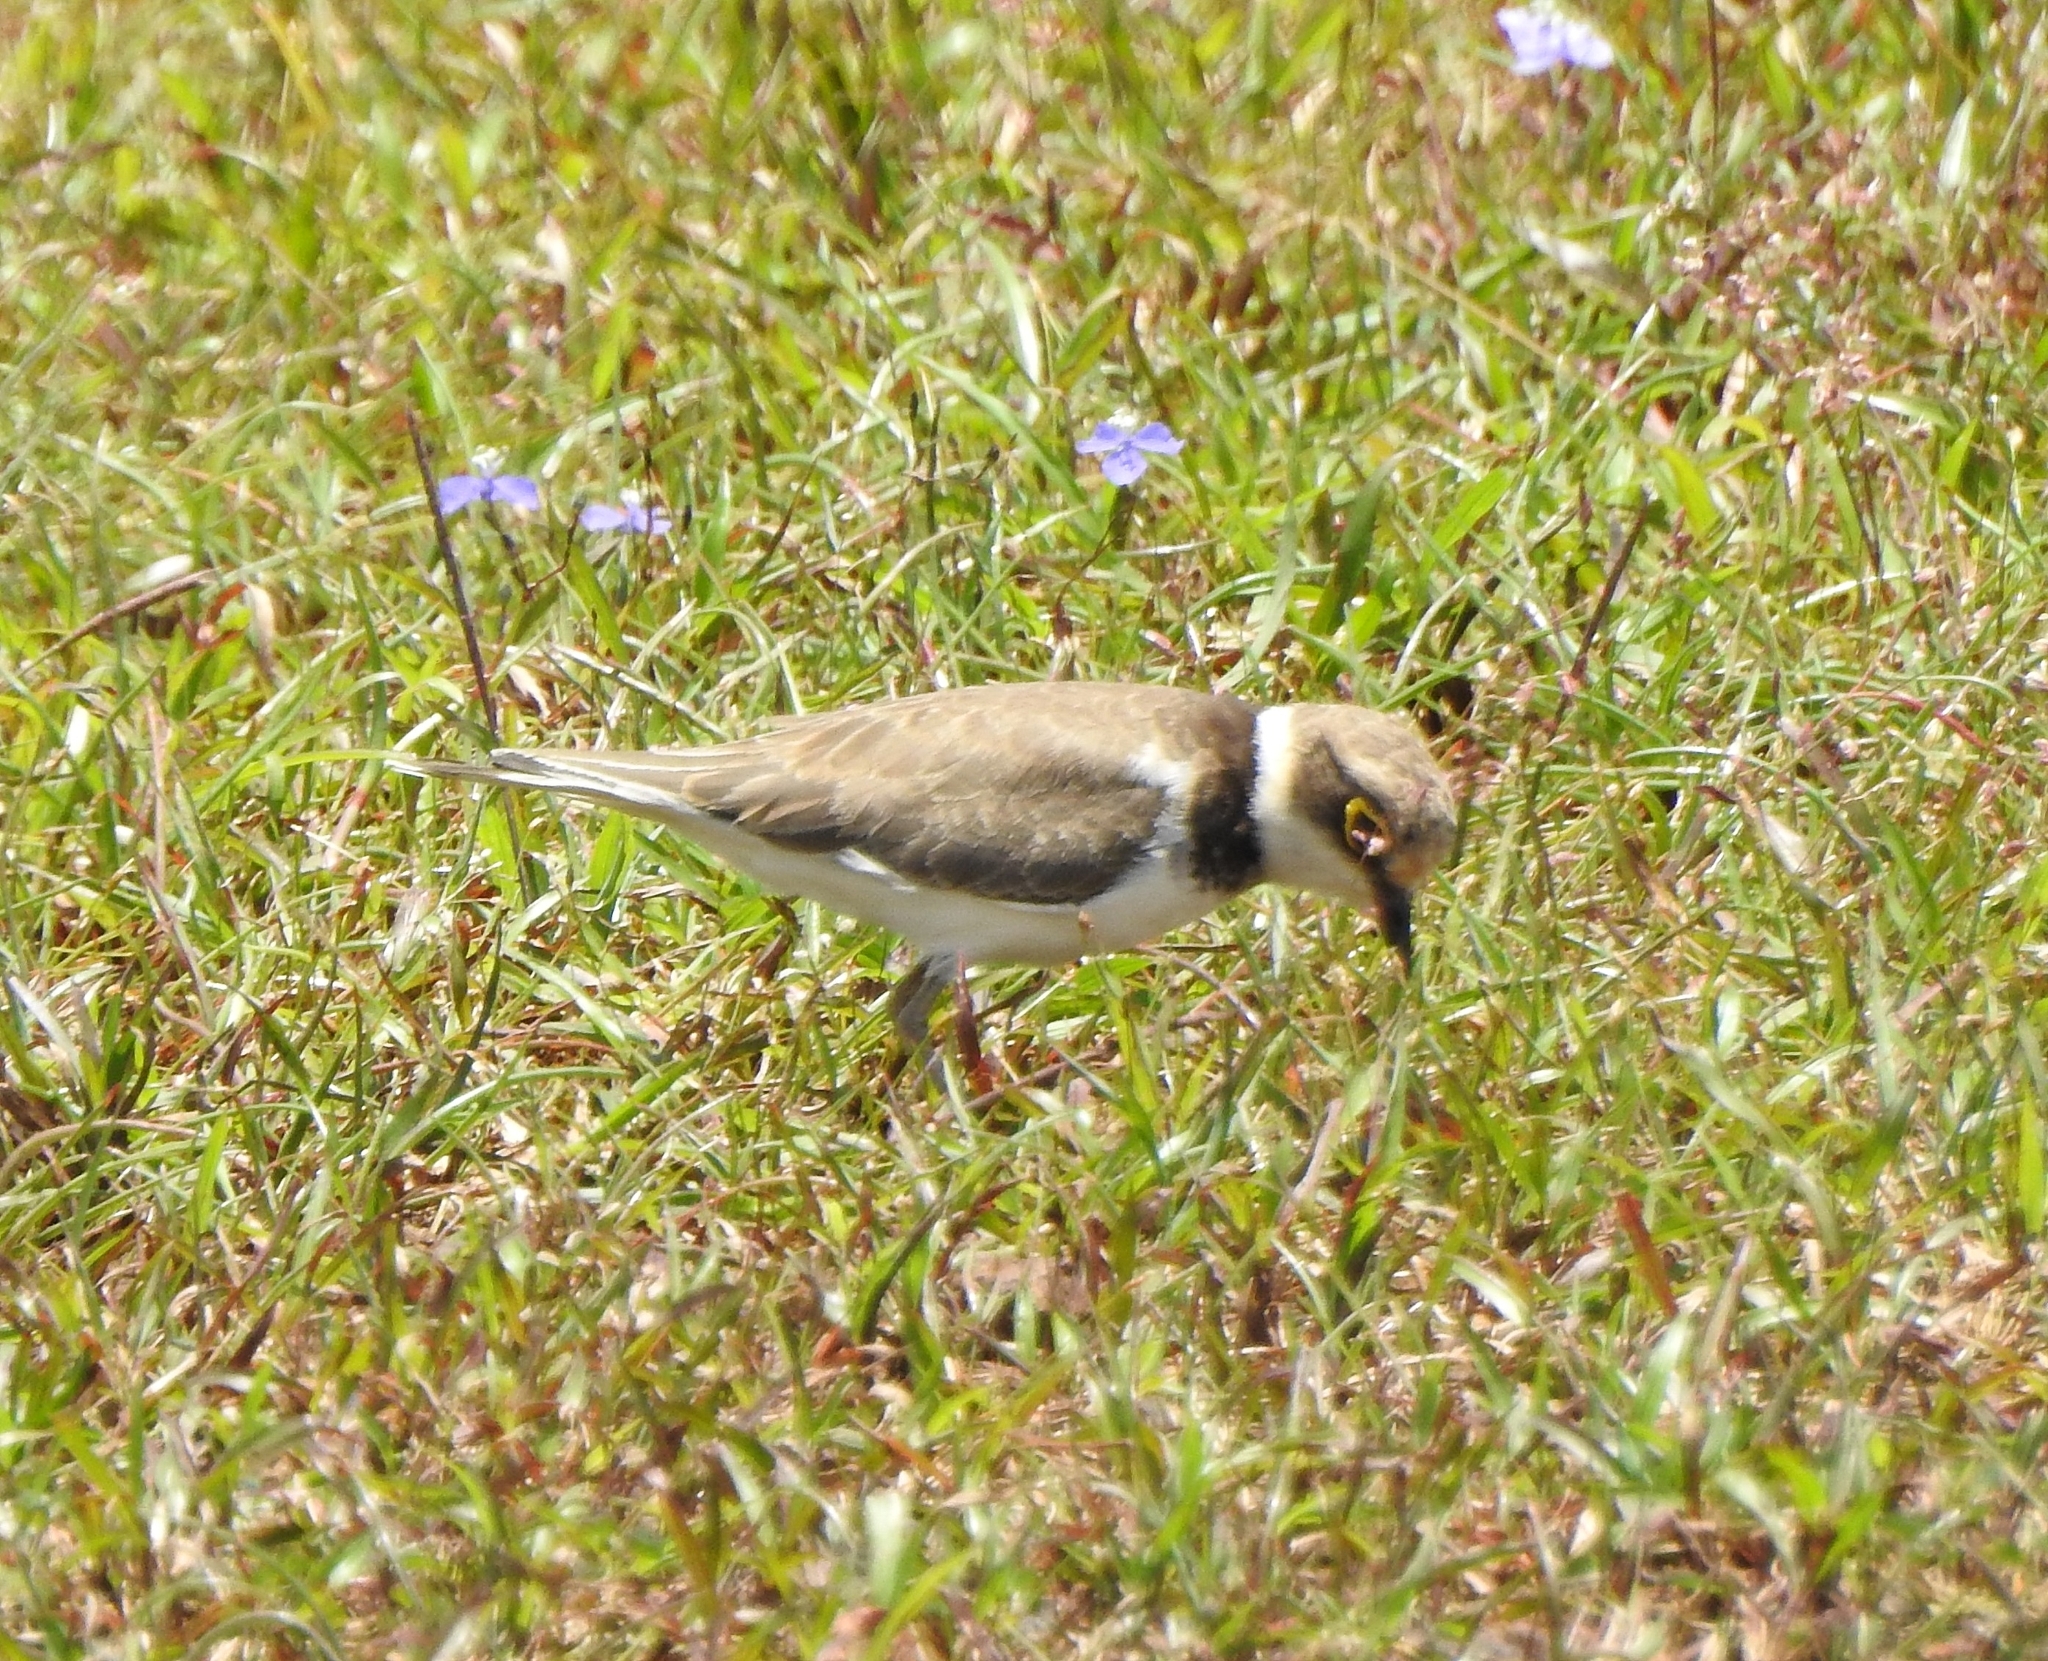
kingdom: Animalia
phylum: Chordata
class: Aves
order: Charadriiformes
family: Charadriidae
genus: Charadrius
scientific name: Charadrius dubius
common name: Little ringed plover
